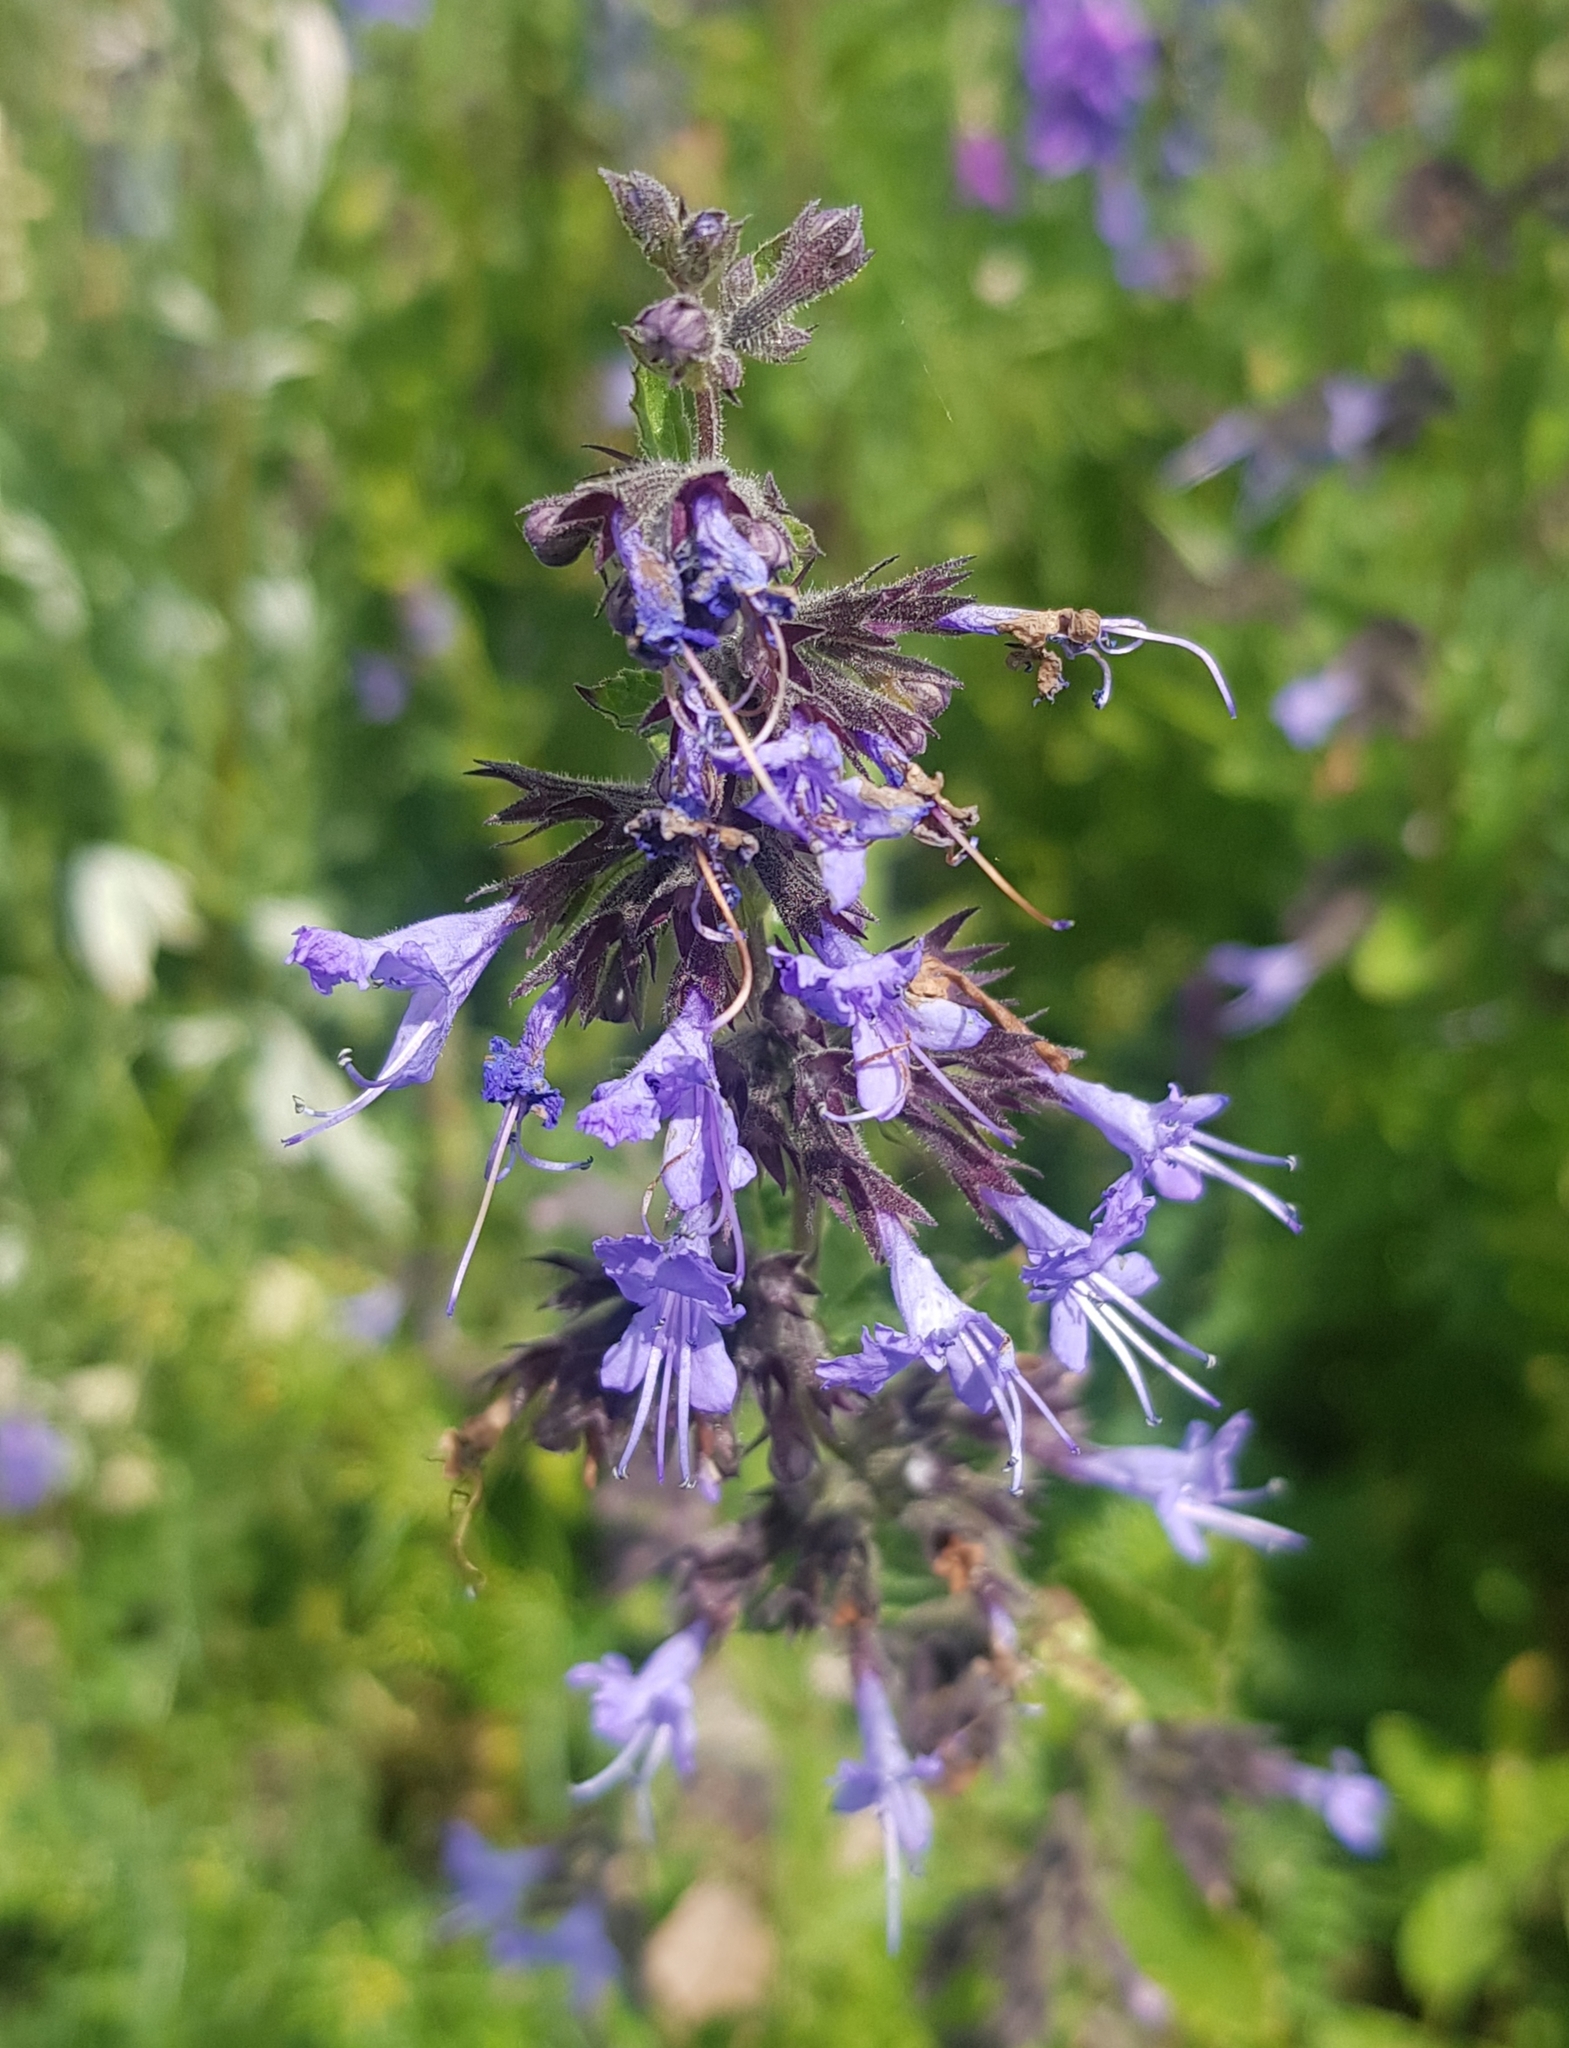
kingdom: Plantae
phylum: Tracheophyta
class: Magnoliopsida
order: Lamiales
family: Lamiaceae
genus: Nepeta
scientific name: Nepeta lophanthus
